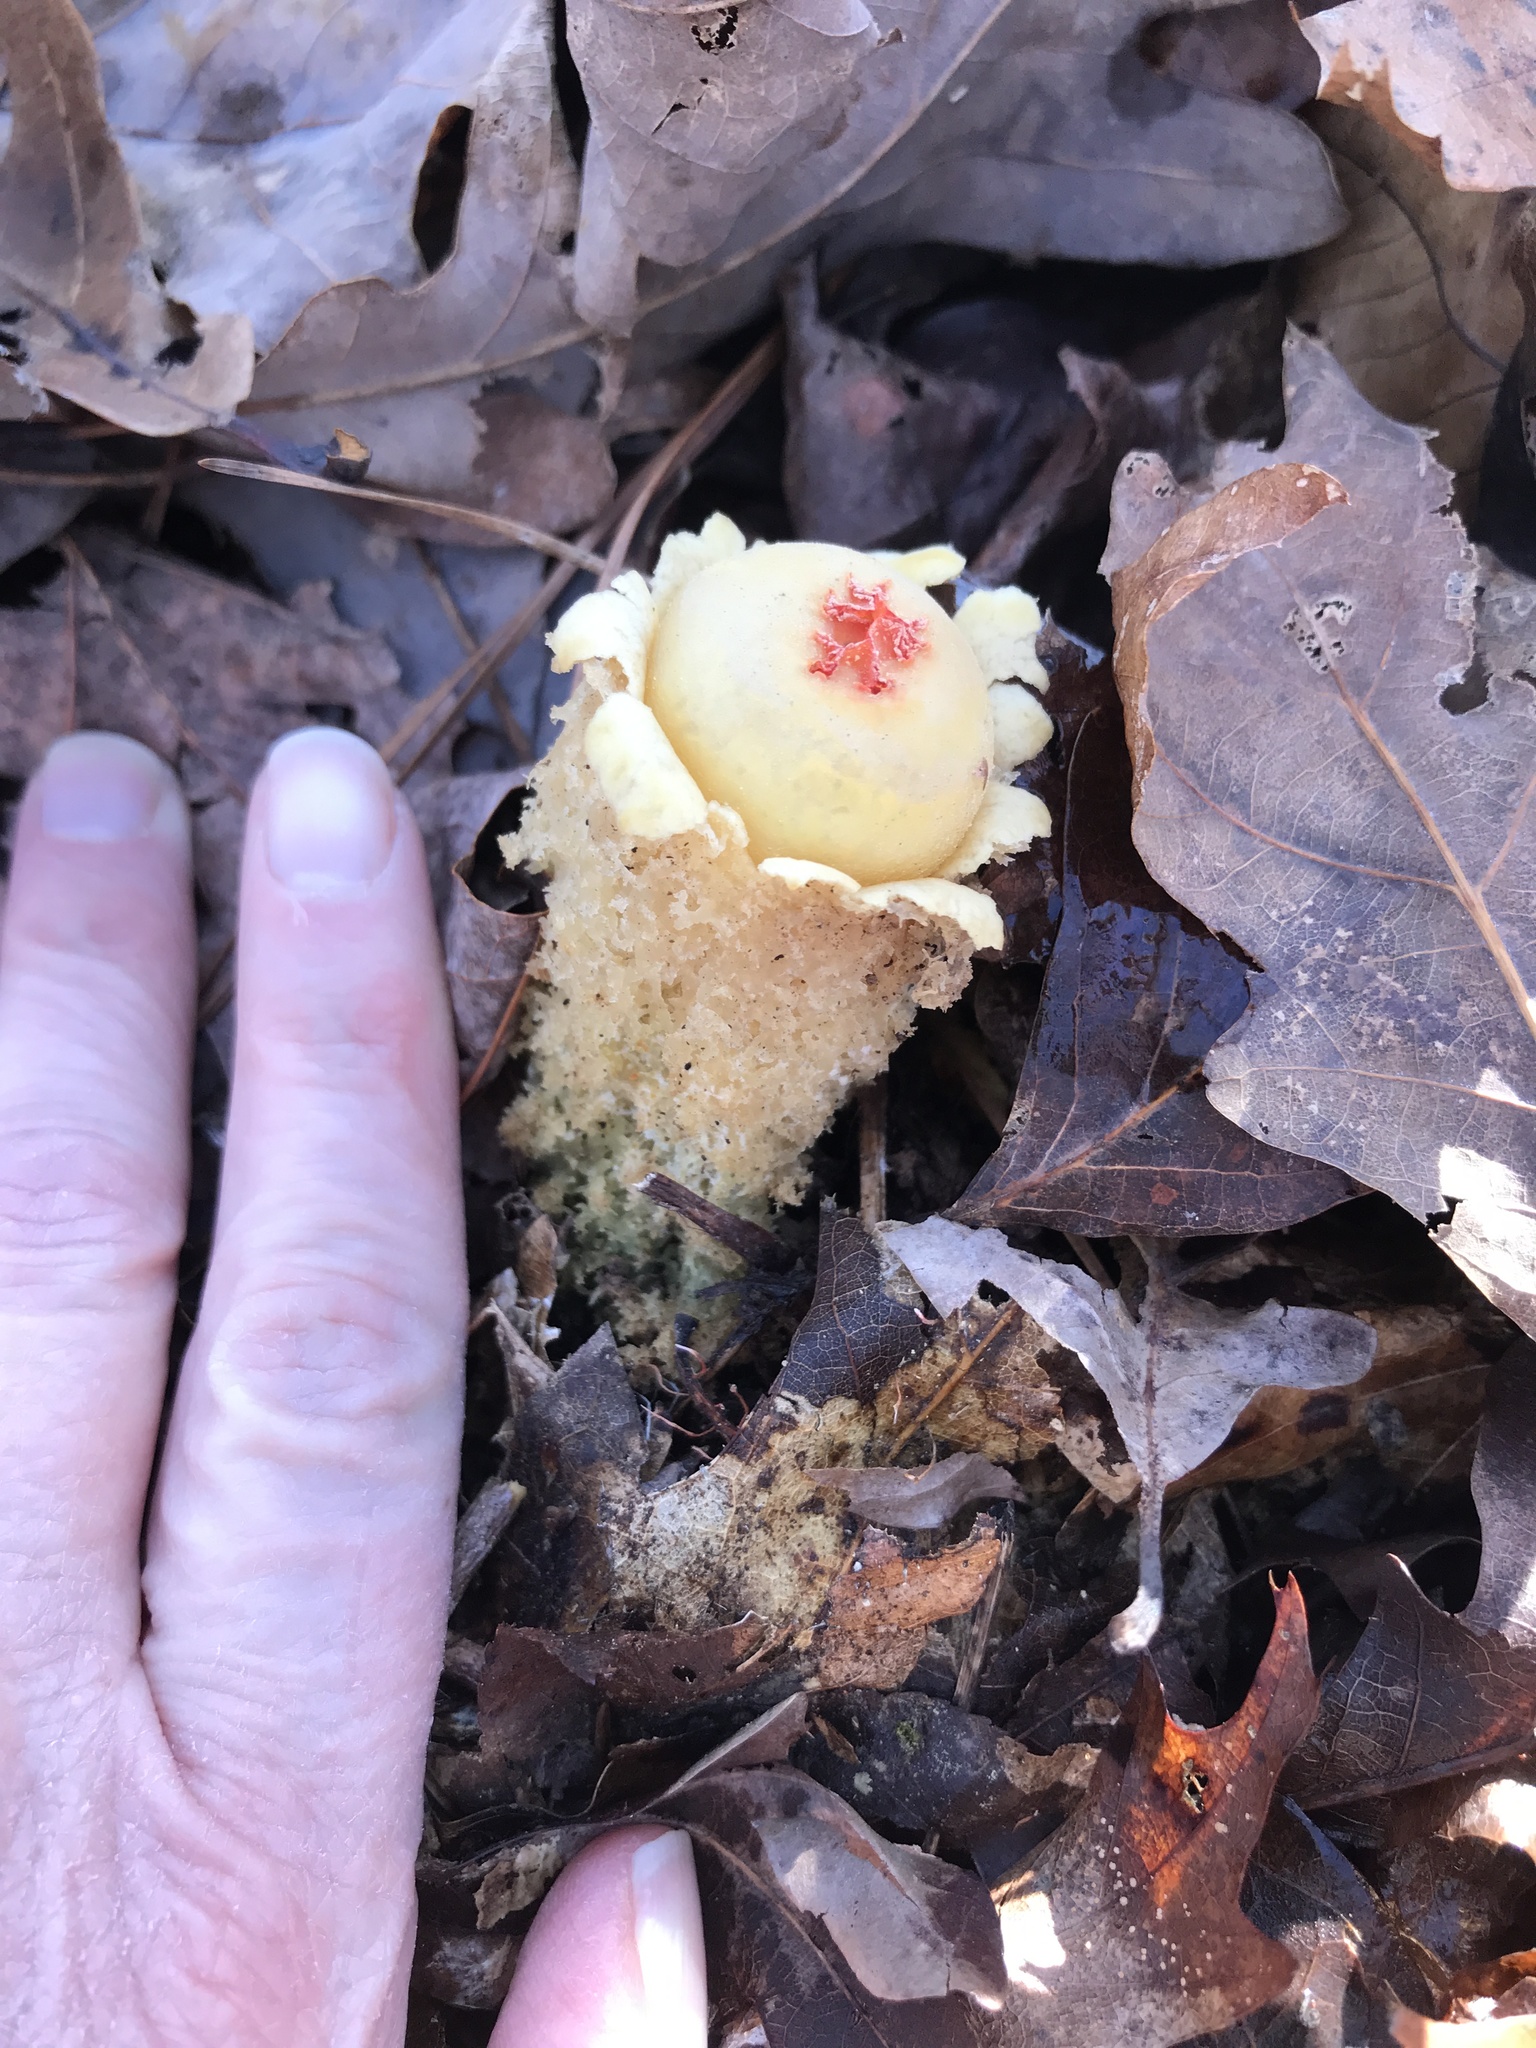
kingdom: Fungi
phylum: Basidiomycota
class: Agaricomycetes
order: Boletales
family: Calostomataceae
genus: Calostoma
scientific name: Calostoma lutescens
